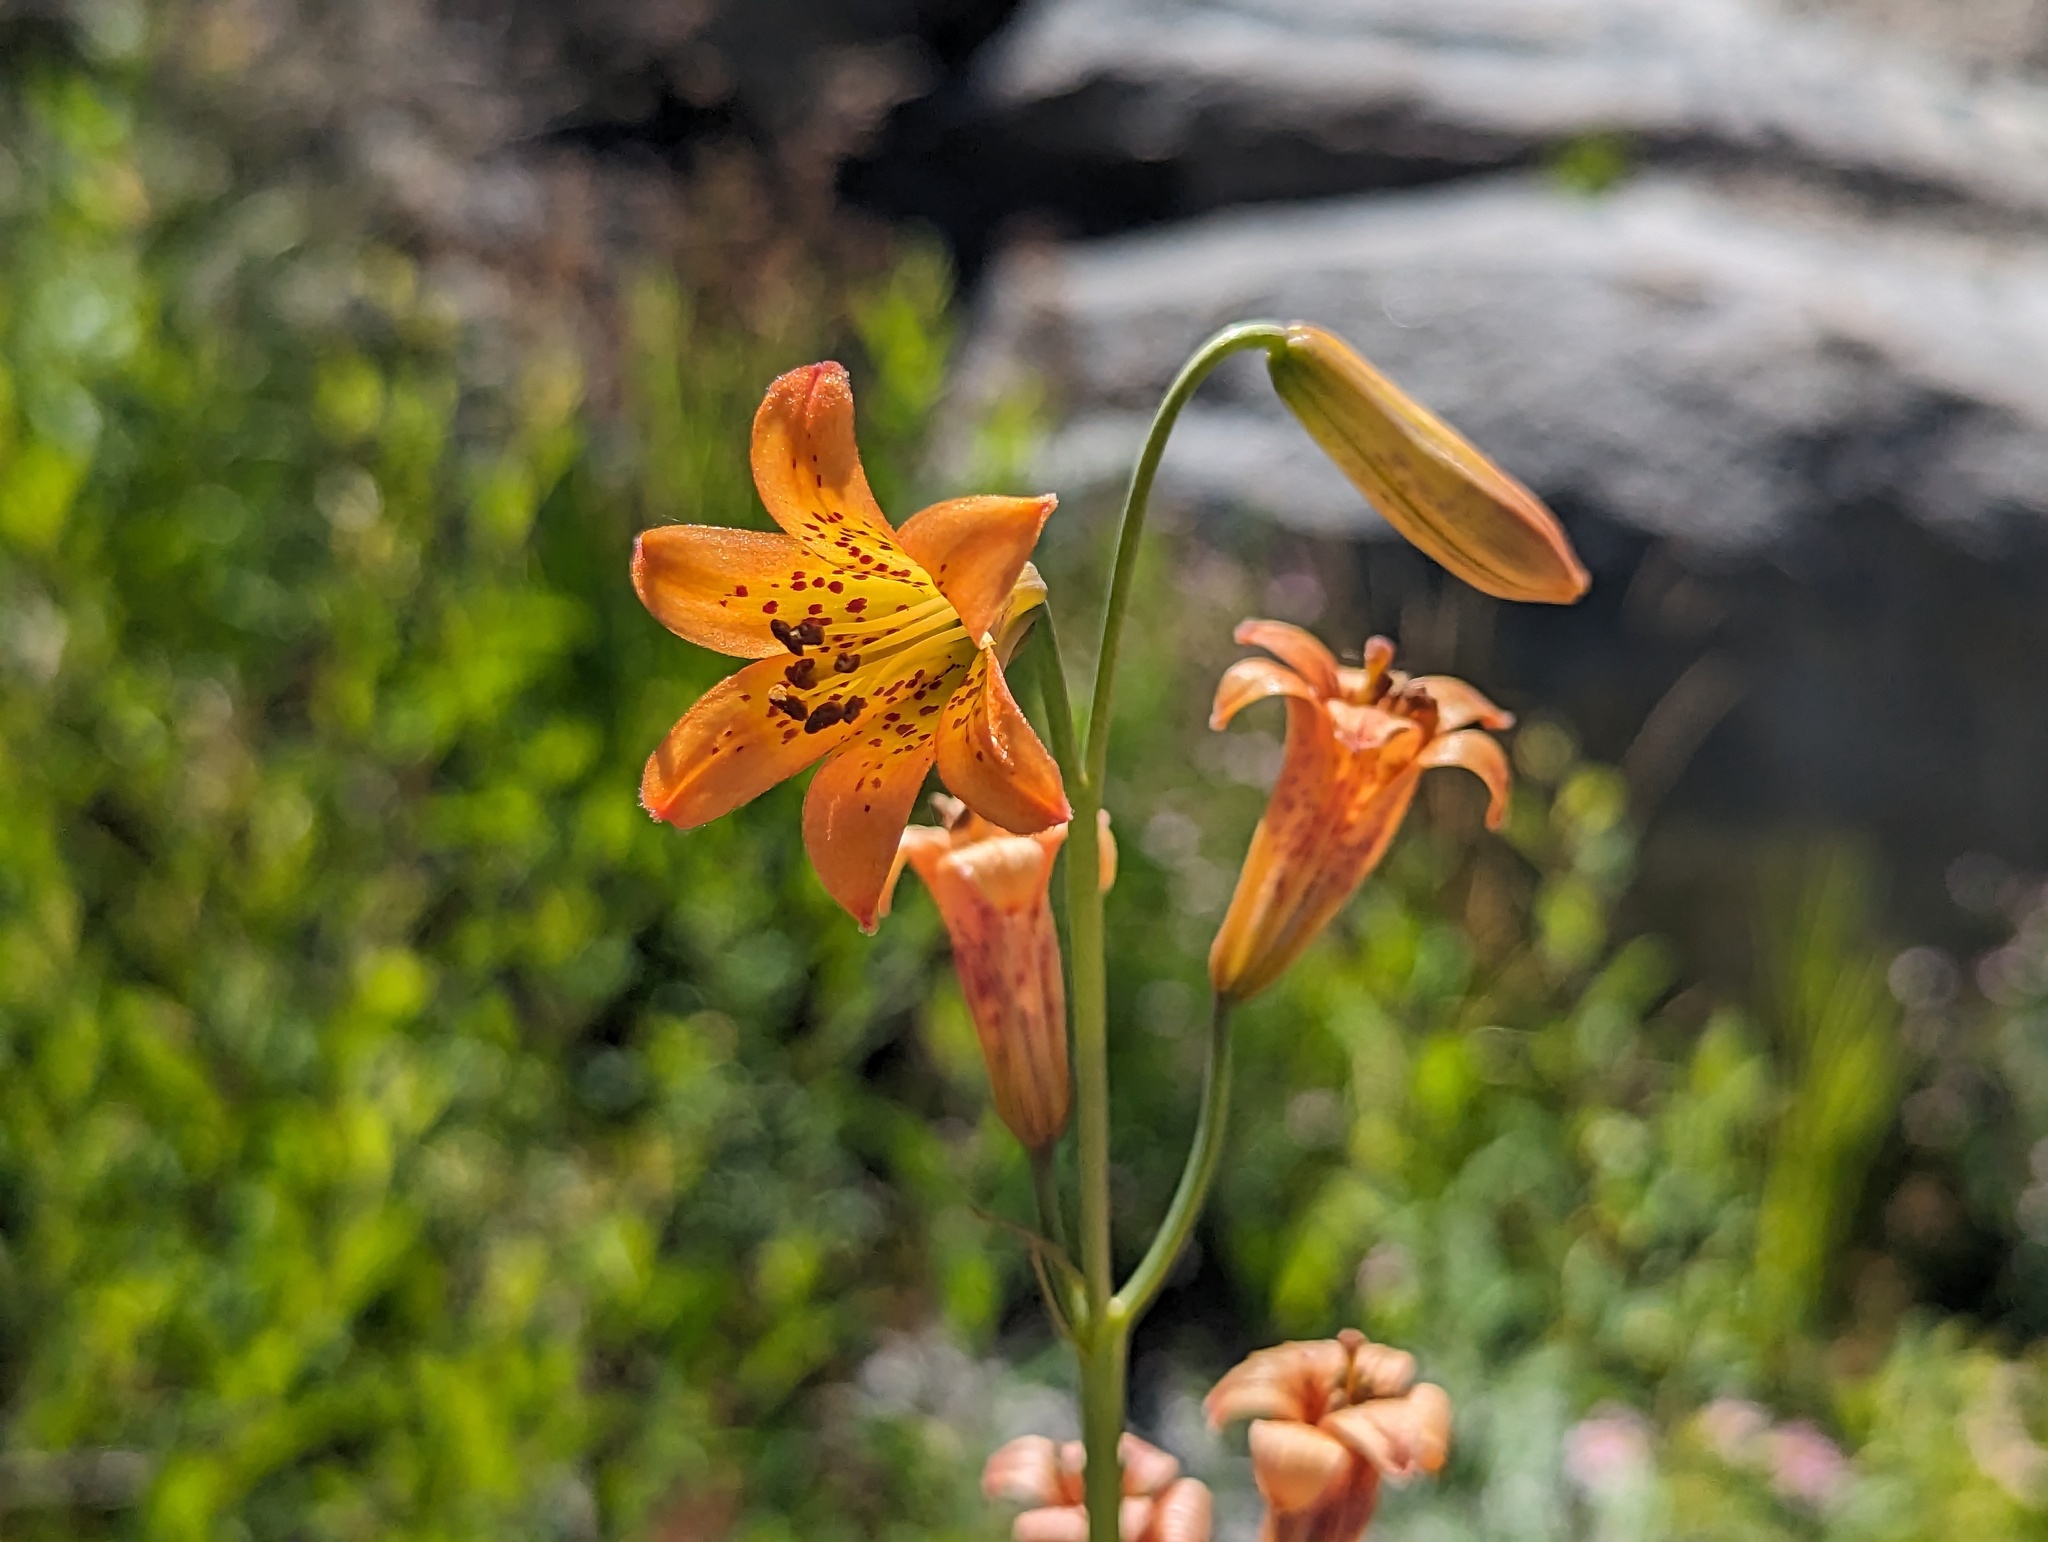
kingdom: Plantae
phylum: Tracheophyta
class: Liliopsida
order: Liliales
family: Liliaceae
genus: Lilium
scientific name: Lilium parvum
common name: Alpine lily
